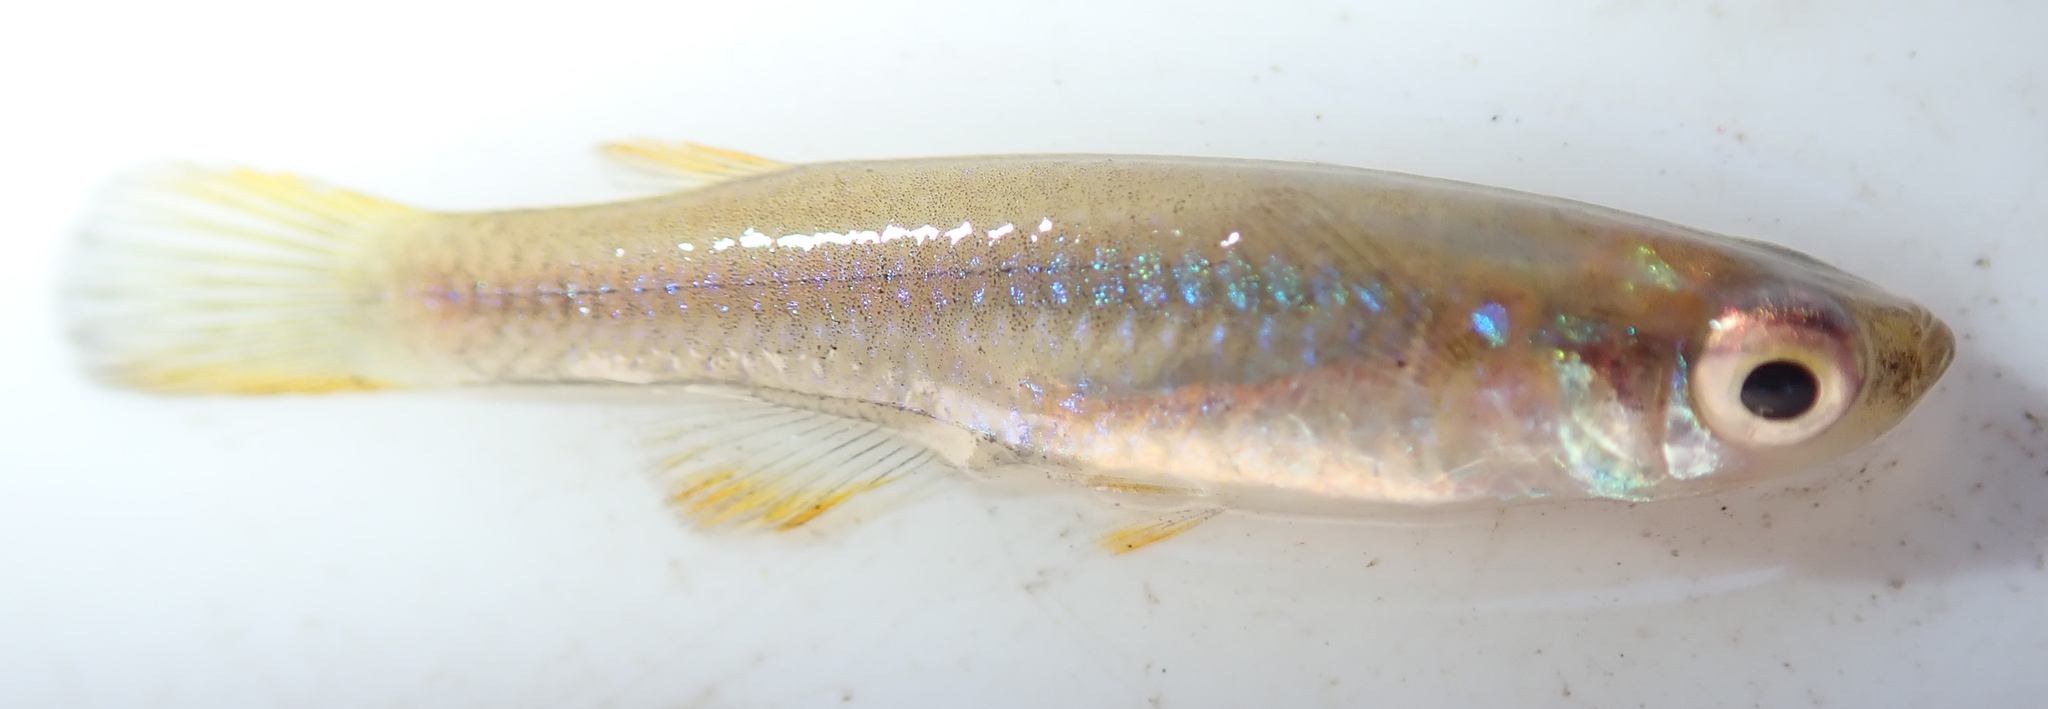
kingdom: Animalia
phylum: Chordata
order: Cyprinodontiformes
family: Poeciliidae
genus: Micropanchax
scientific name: Micropanchax johnstoni
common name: Johnston's topminnow
